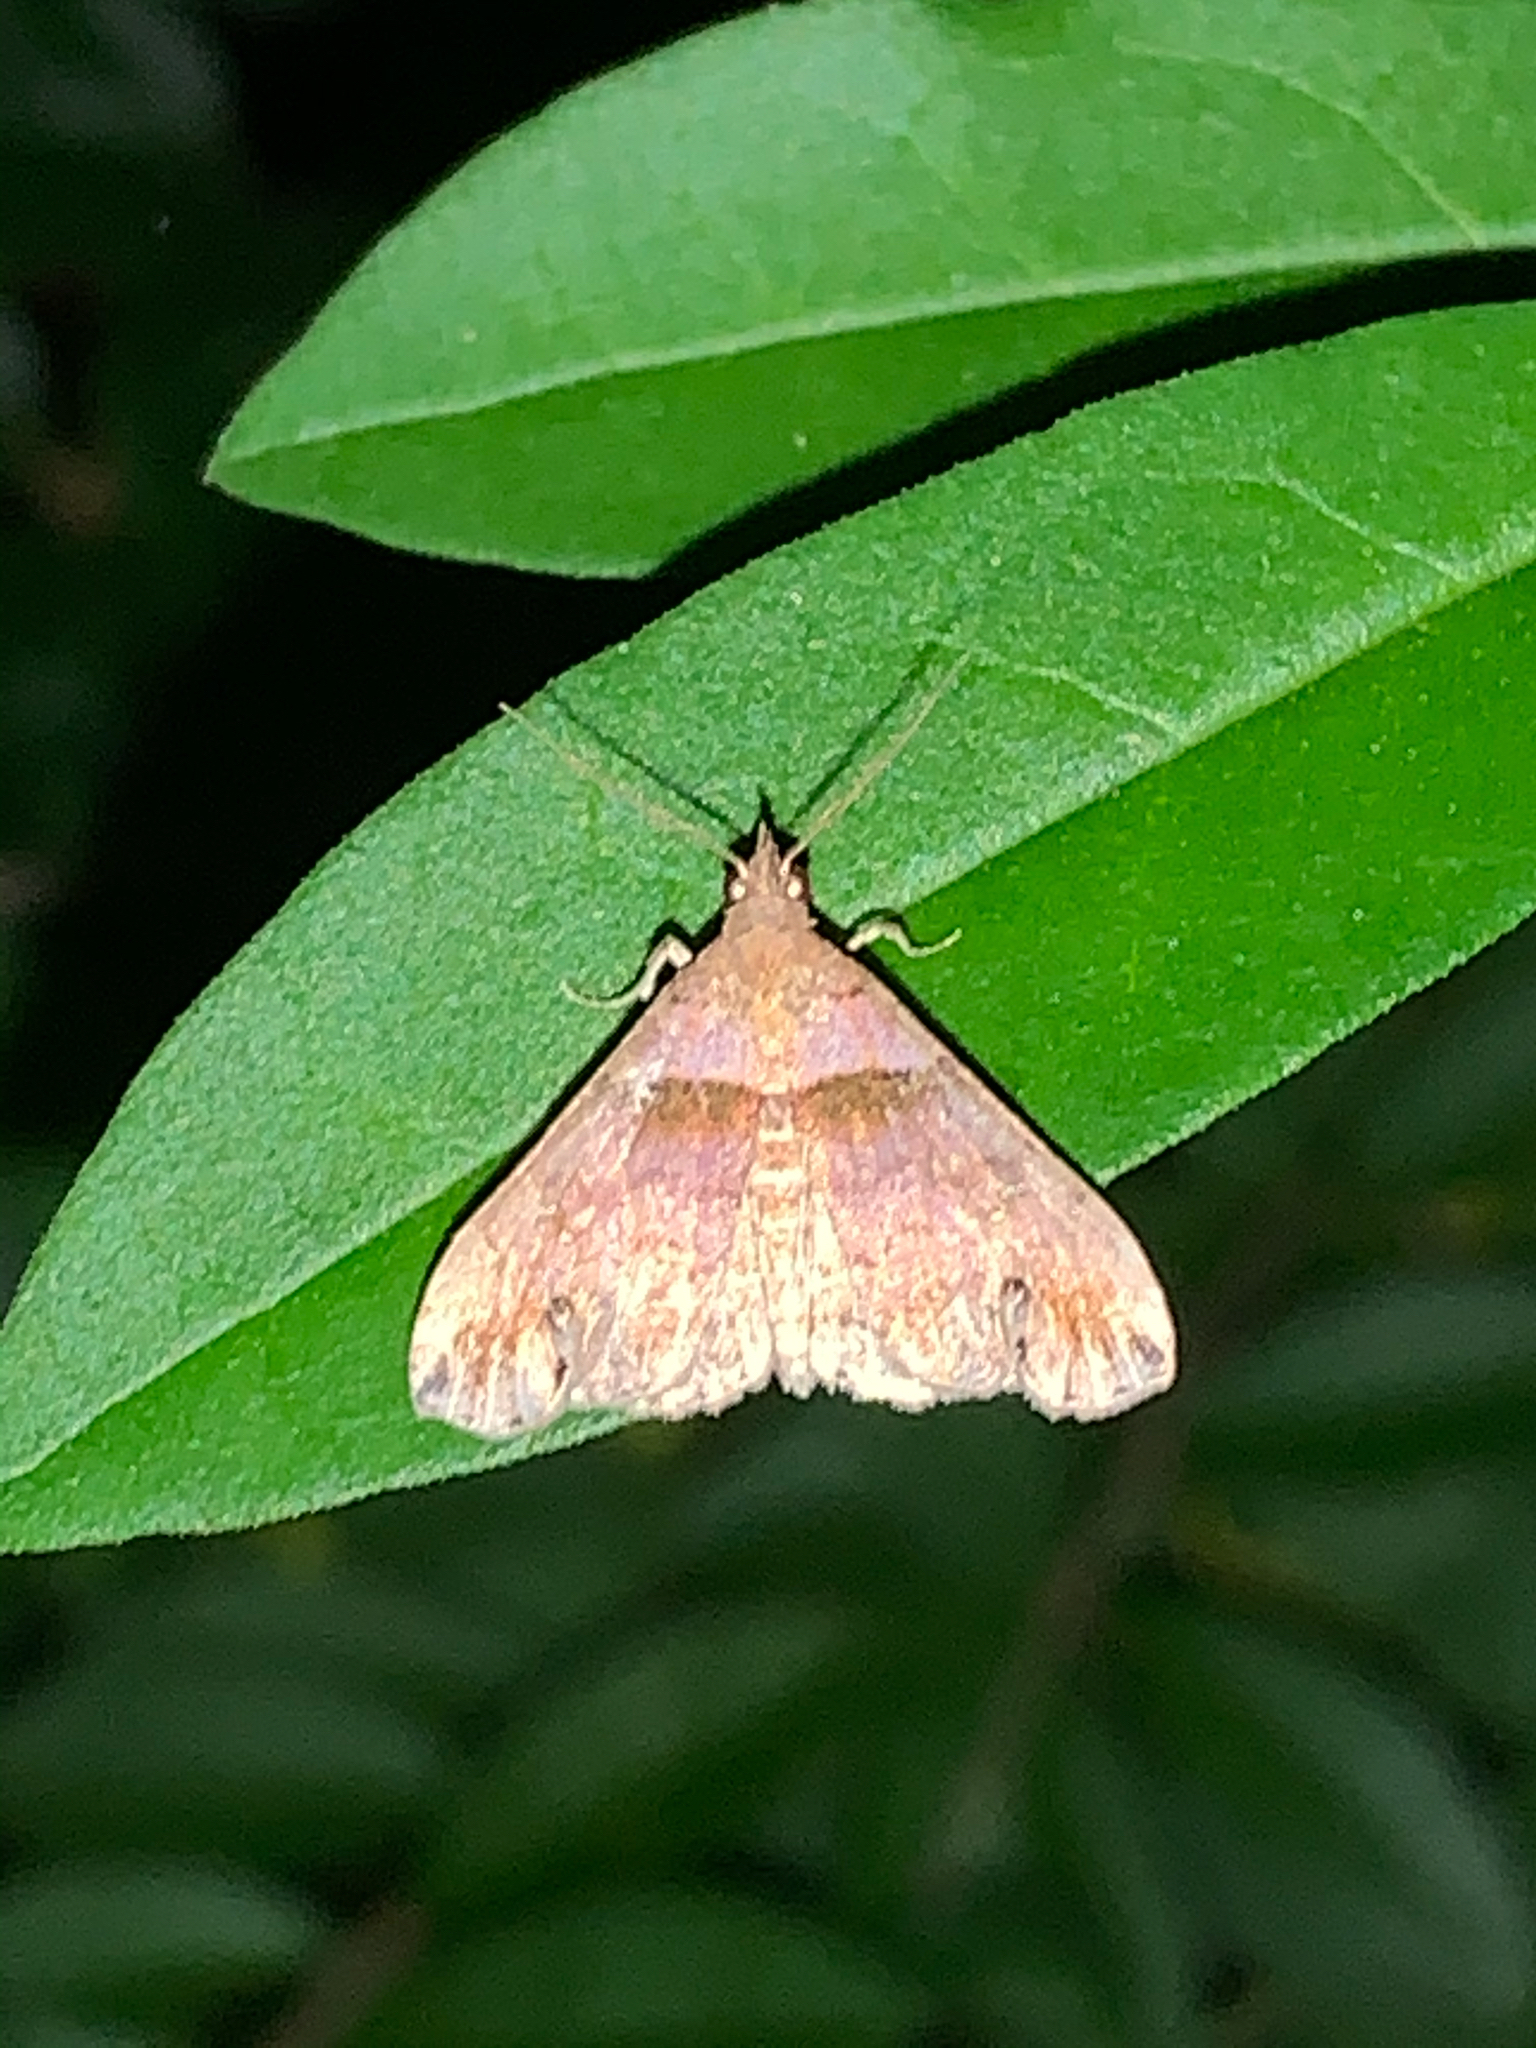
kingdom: Animalia
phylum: Arthropoda
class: Insecta
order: Lepidoptera
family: Erebidae
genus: Lascoria
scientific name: Lascoria ambigualis
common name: Ambiguous moth
